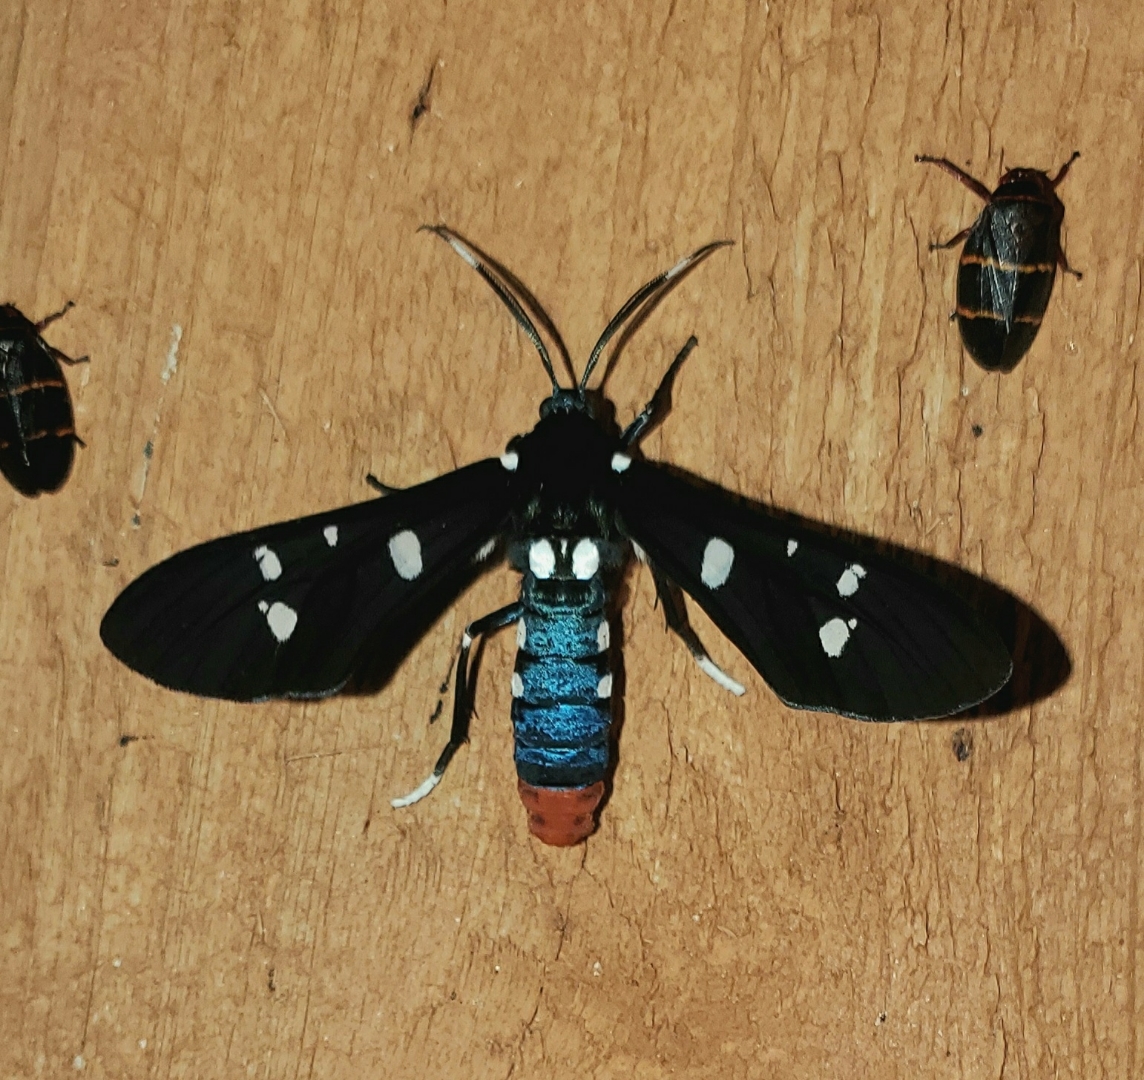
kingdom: Animalia
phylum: Arthropoda
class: Insecta
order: Lepidoptera
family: Erebidae
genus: Syntomeida
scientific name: Syntomeida epilais
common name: Polka-dot wasp moth
